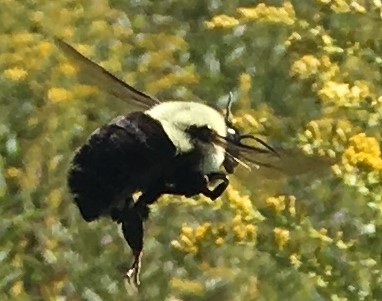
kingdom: Animalia
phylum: Arthropoda
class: Insecta
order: Hymenoptera
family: Apidae
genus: Bombus
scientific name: Bombus impatiens
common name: Common eastern bumble bee
